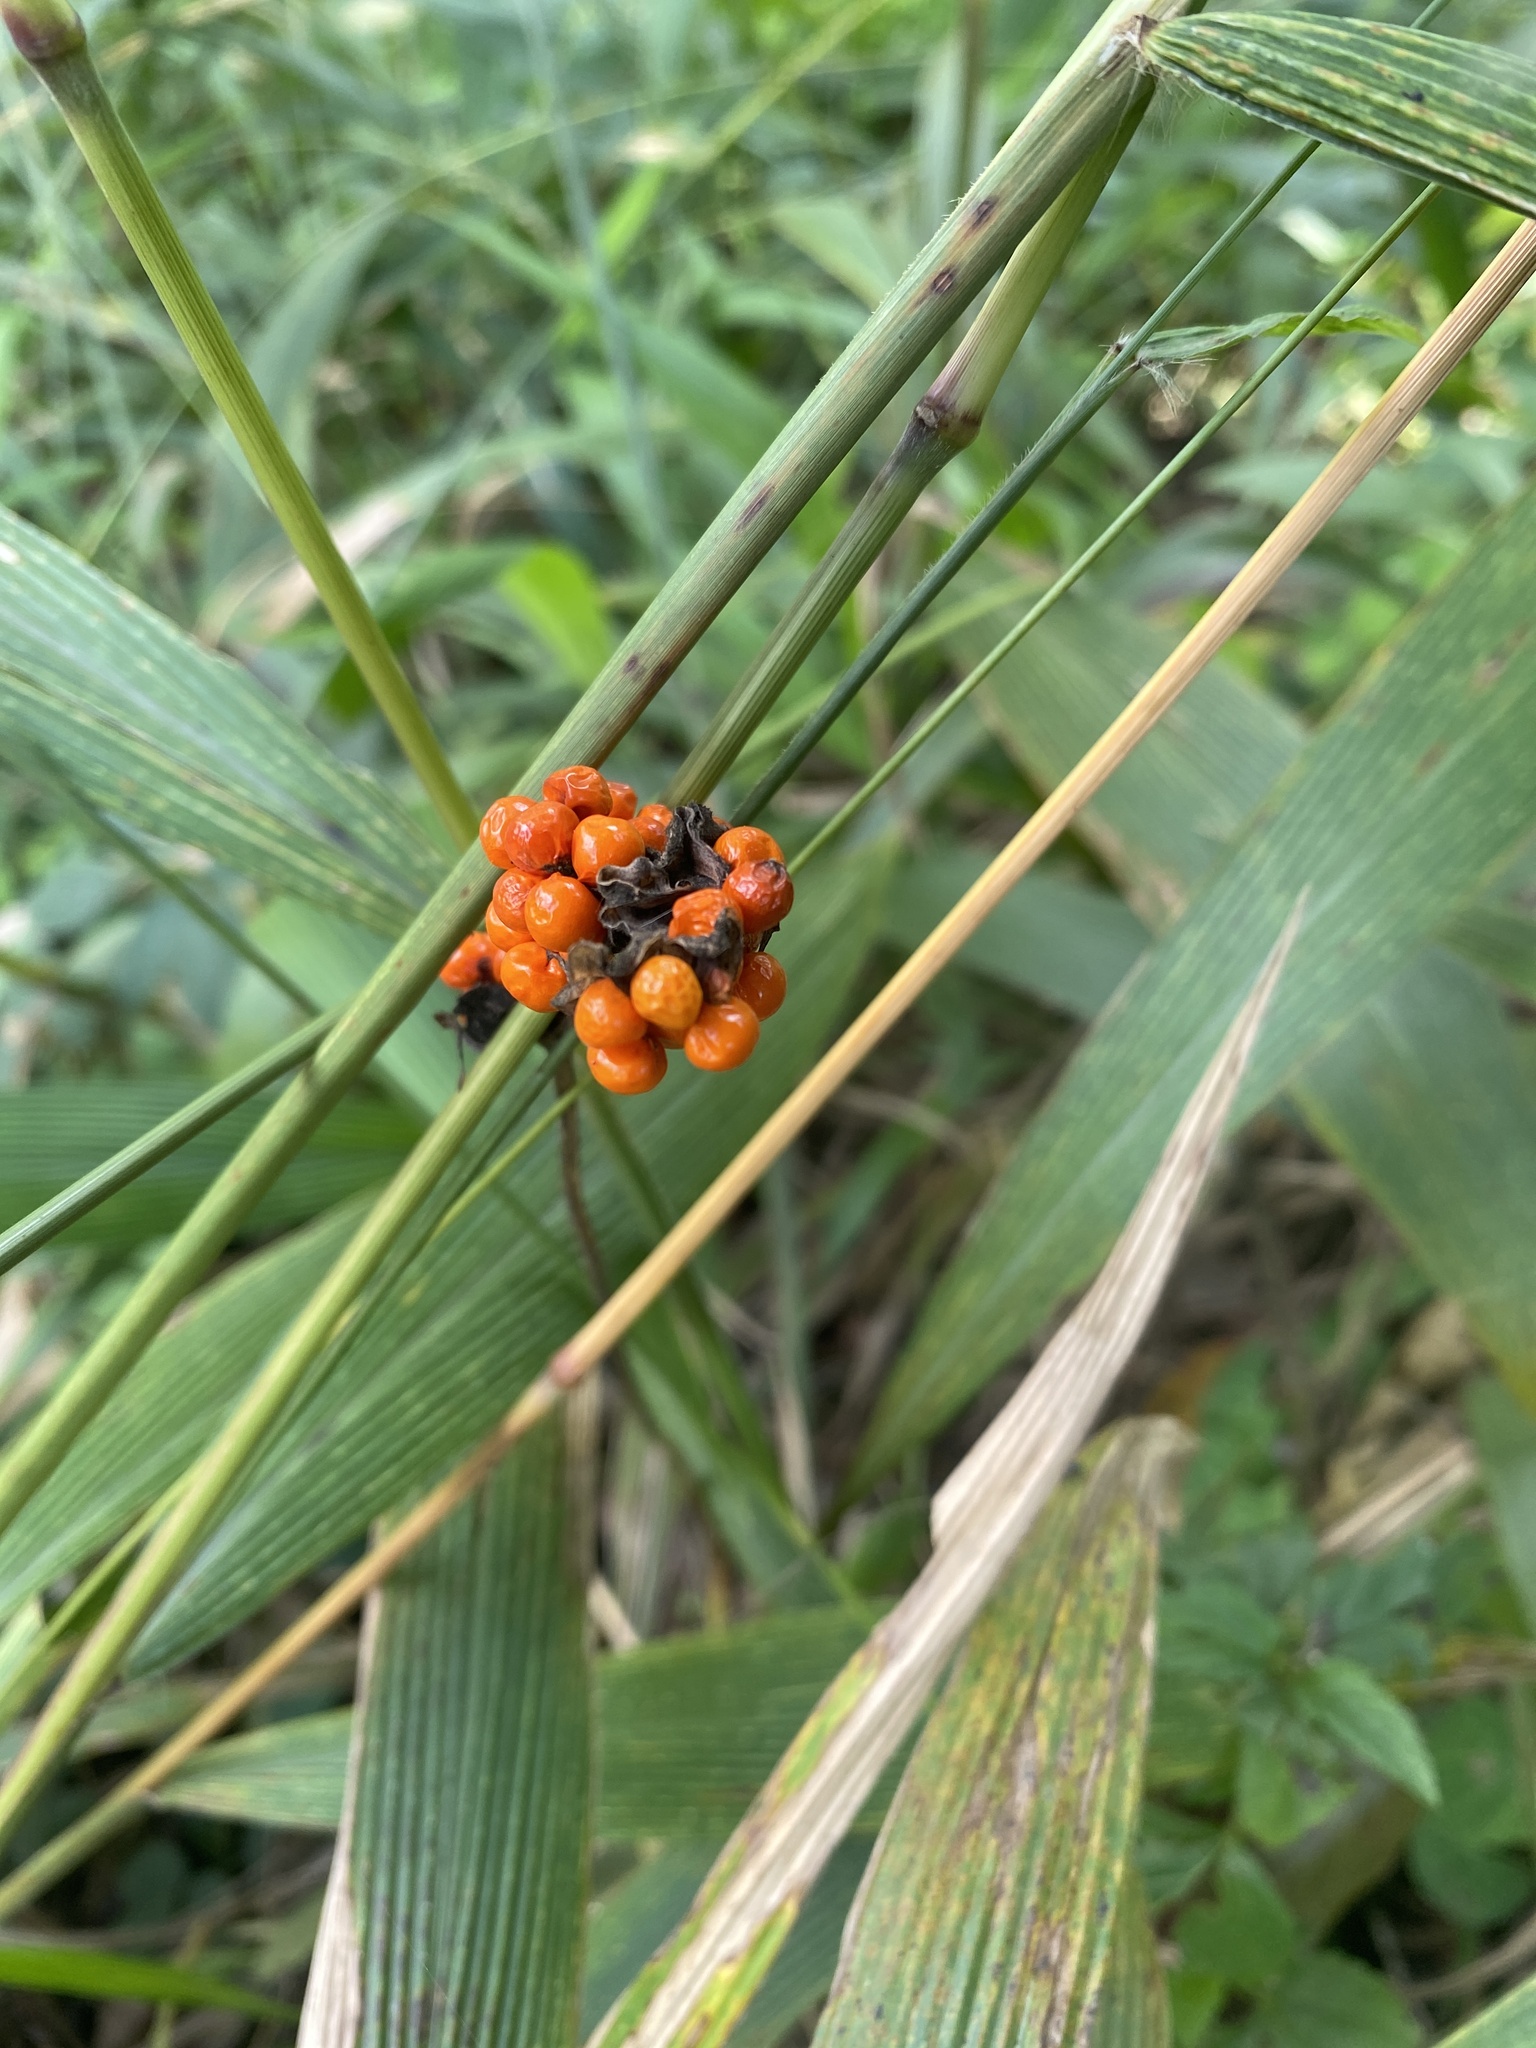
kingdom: Plantae
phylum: Tracheophyta
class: Liliopsida
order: Asparagales
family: Iridaceae
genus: Freesia
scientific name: Freesia grandiflora
